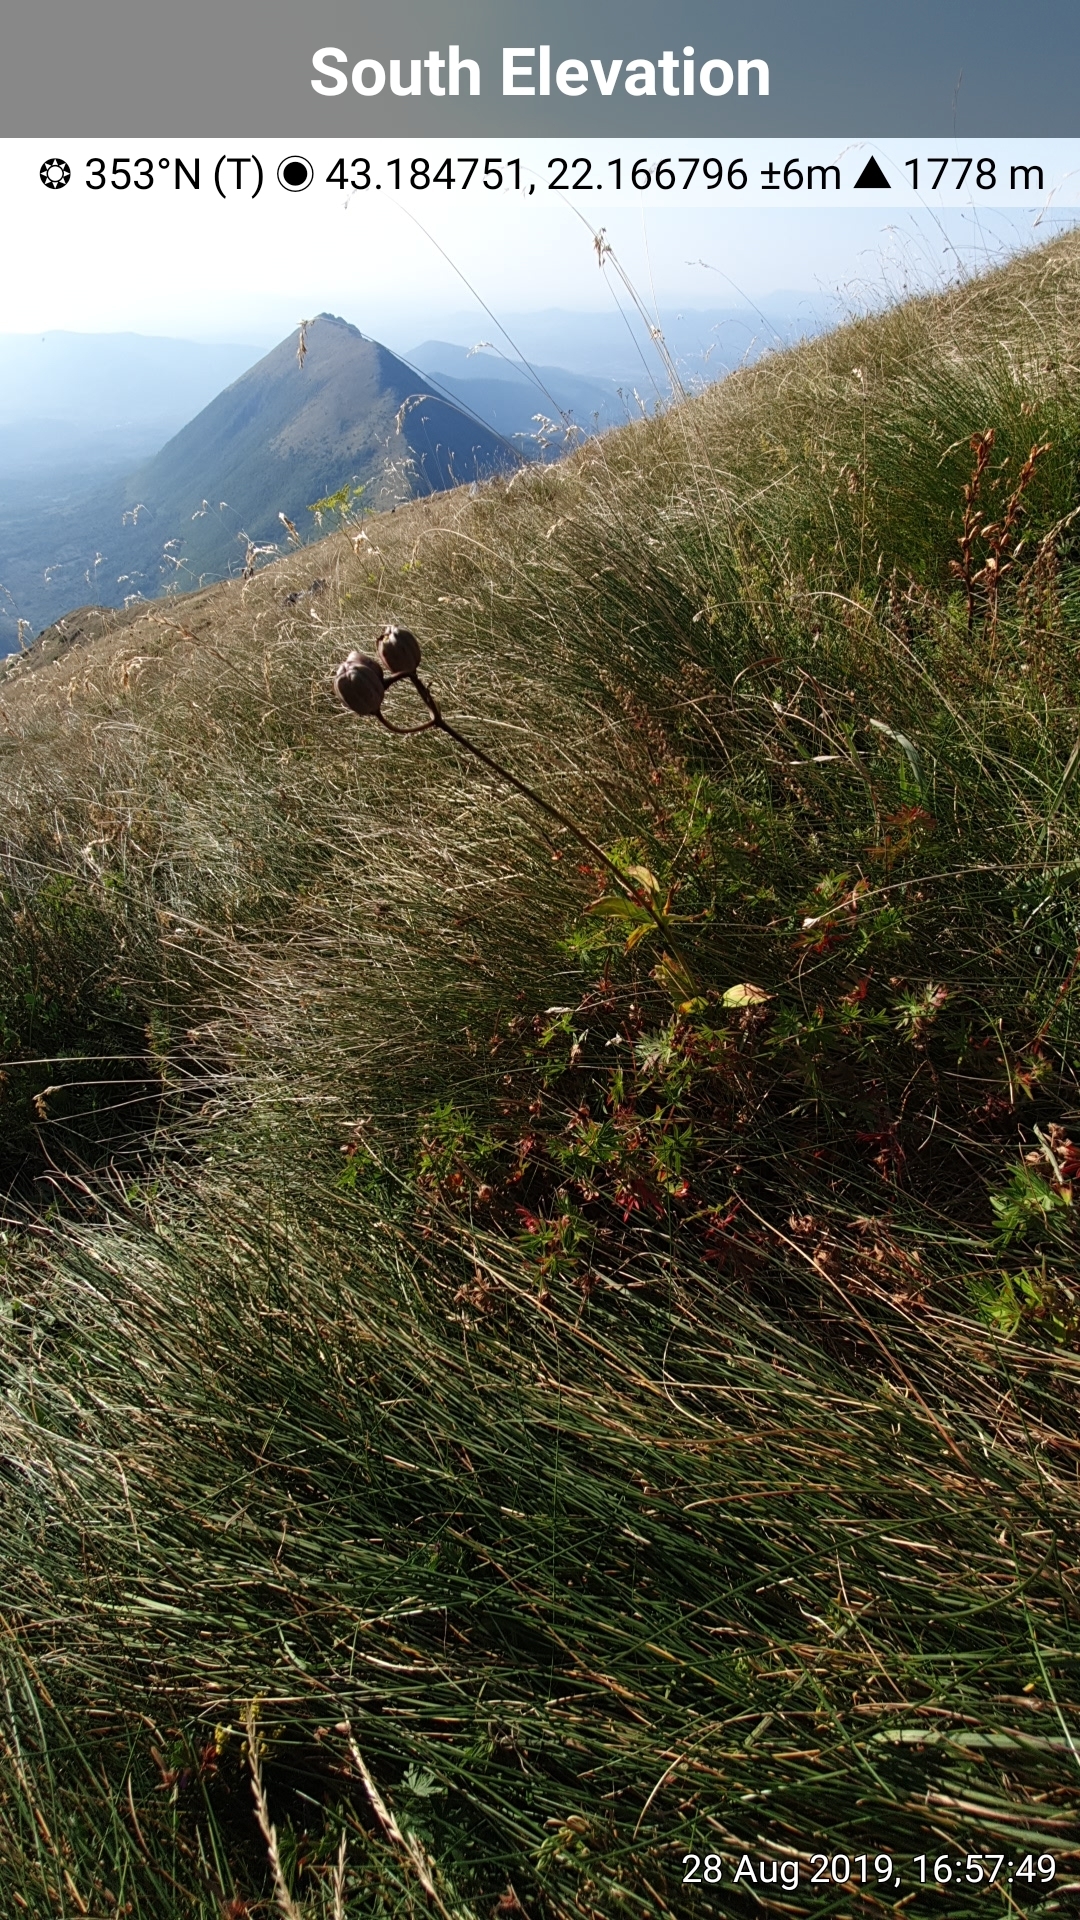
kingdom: Plantae
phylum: Tracheophyta
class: Liliopsida
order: Liliales
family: Liliaceae
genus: Lilium
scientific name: Lilium martagon
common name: Martagon lily
